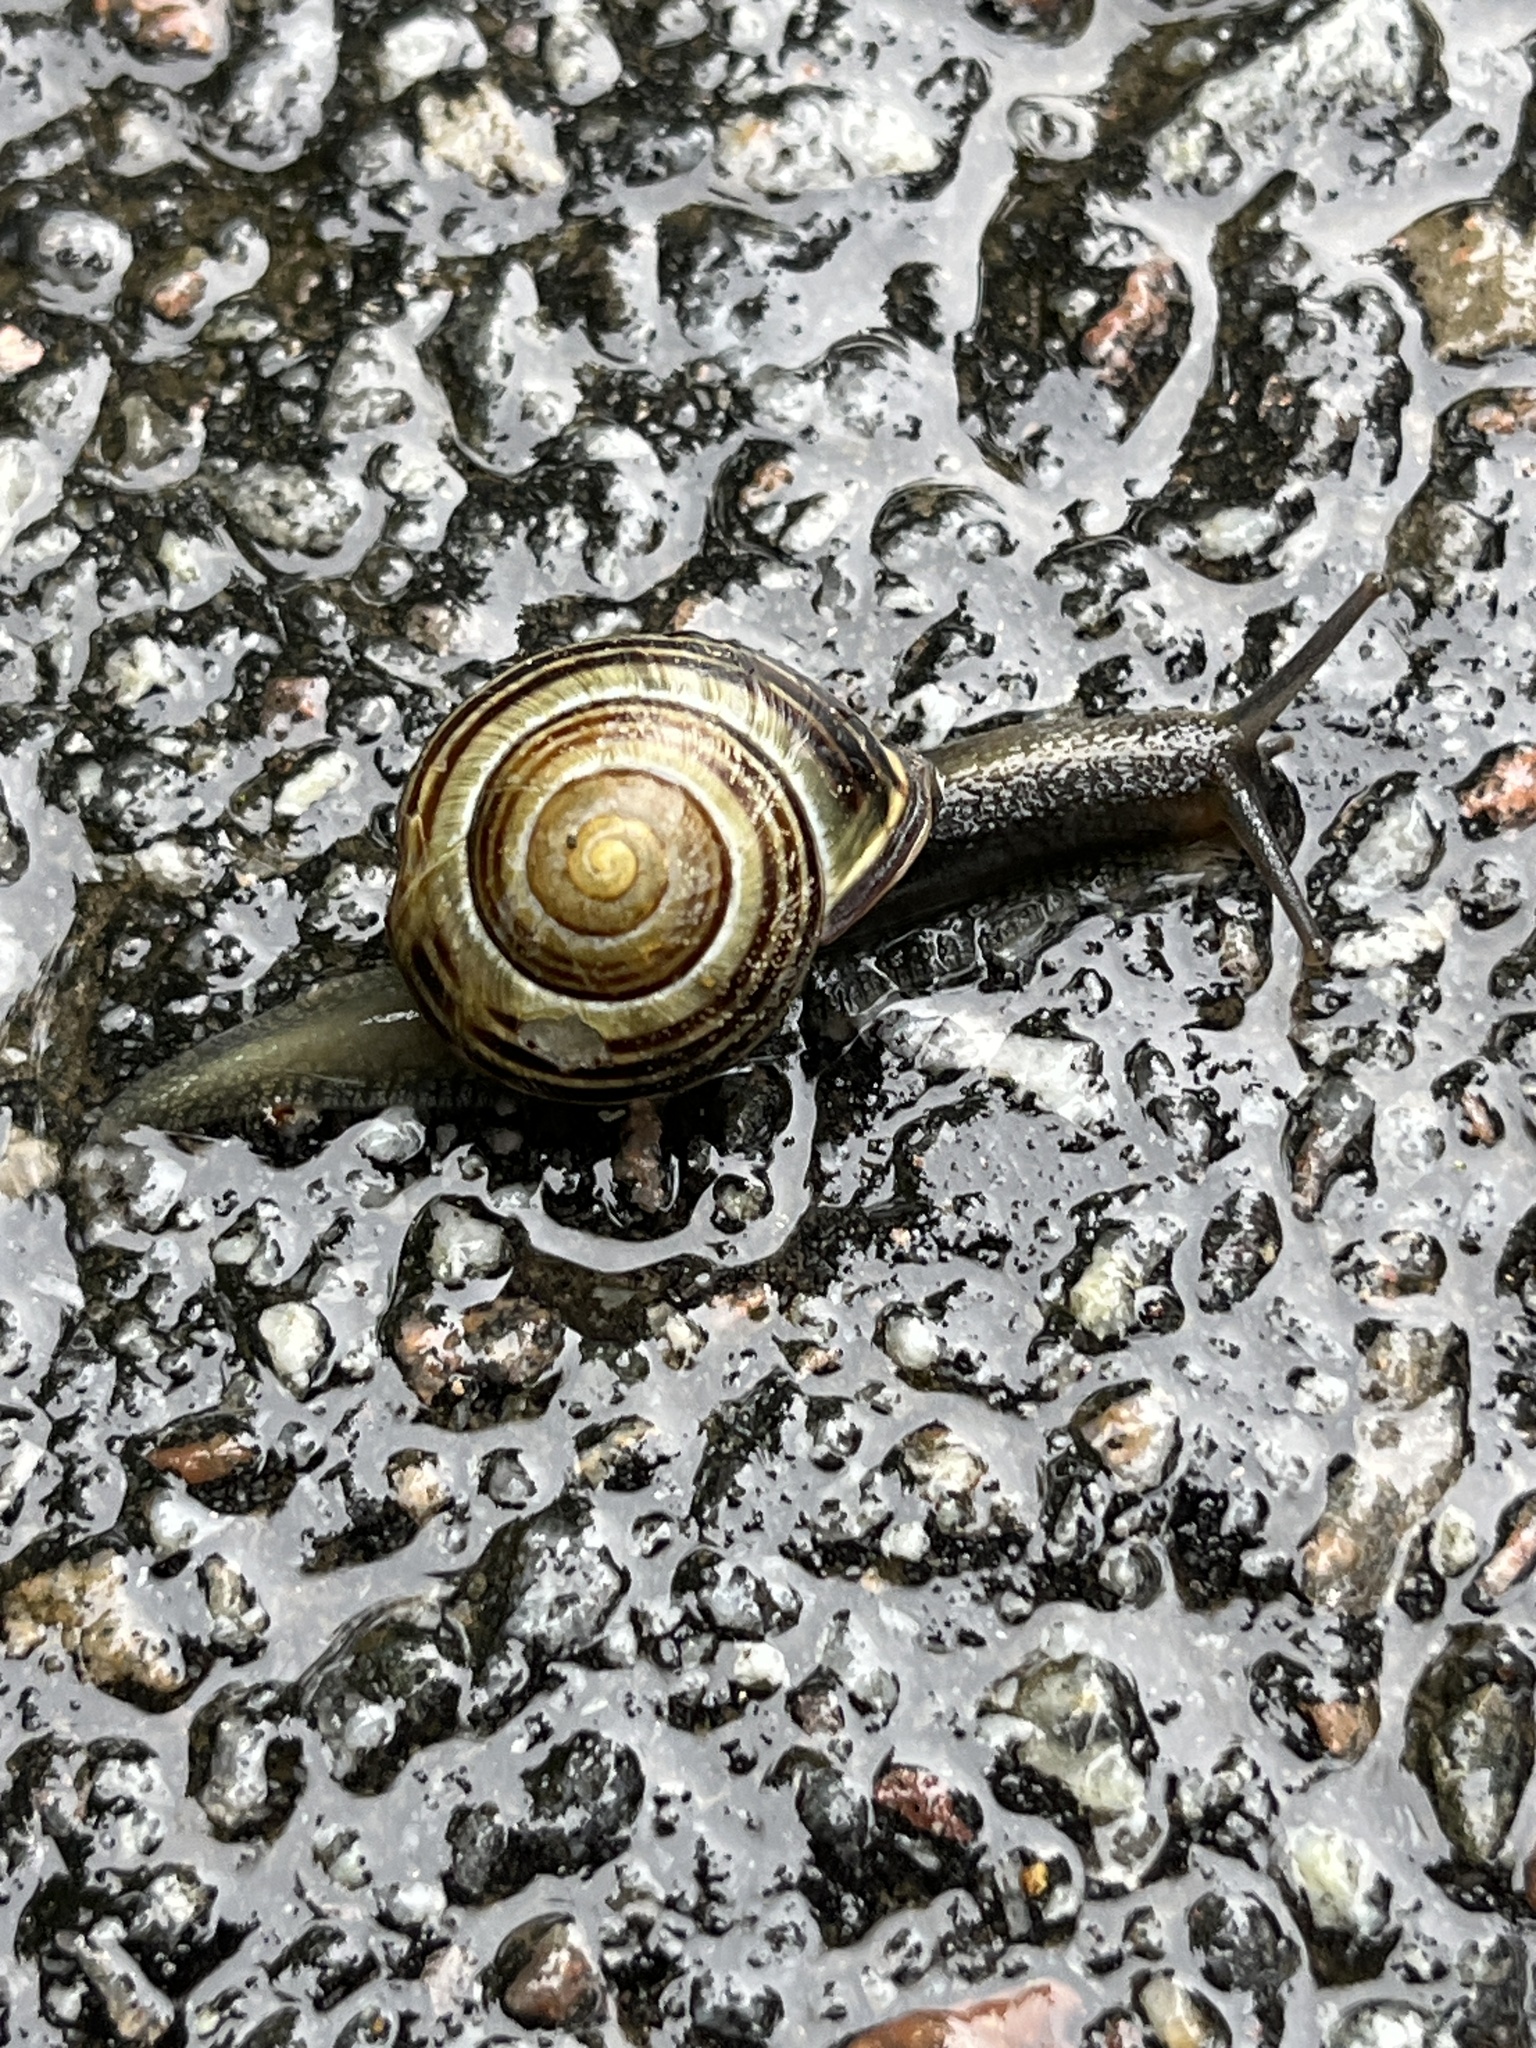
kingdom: Animalia
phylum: Mollusca
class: Gastropoda
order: Stylommatophora
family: Helicidae
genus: Cepaea
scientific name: Cepaea nemoralis
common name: Grovesnail
